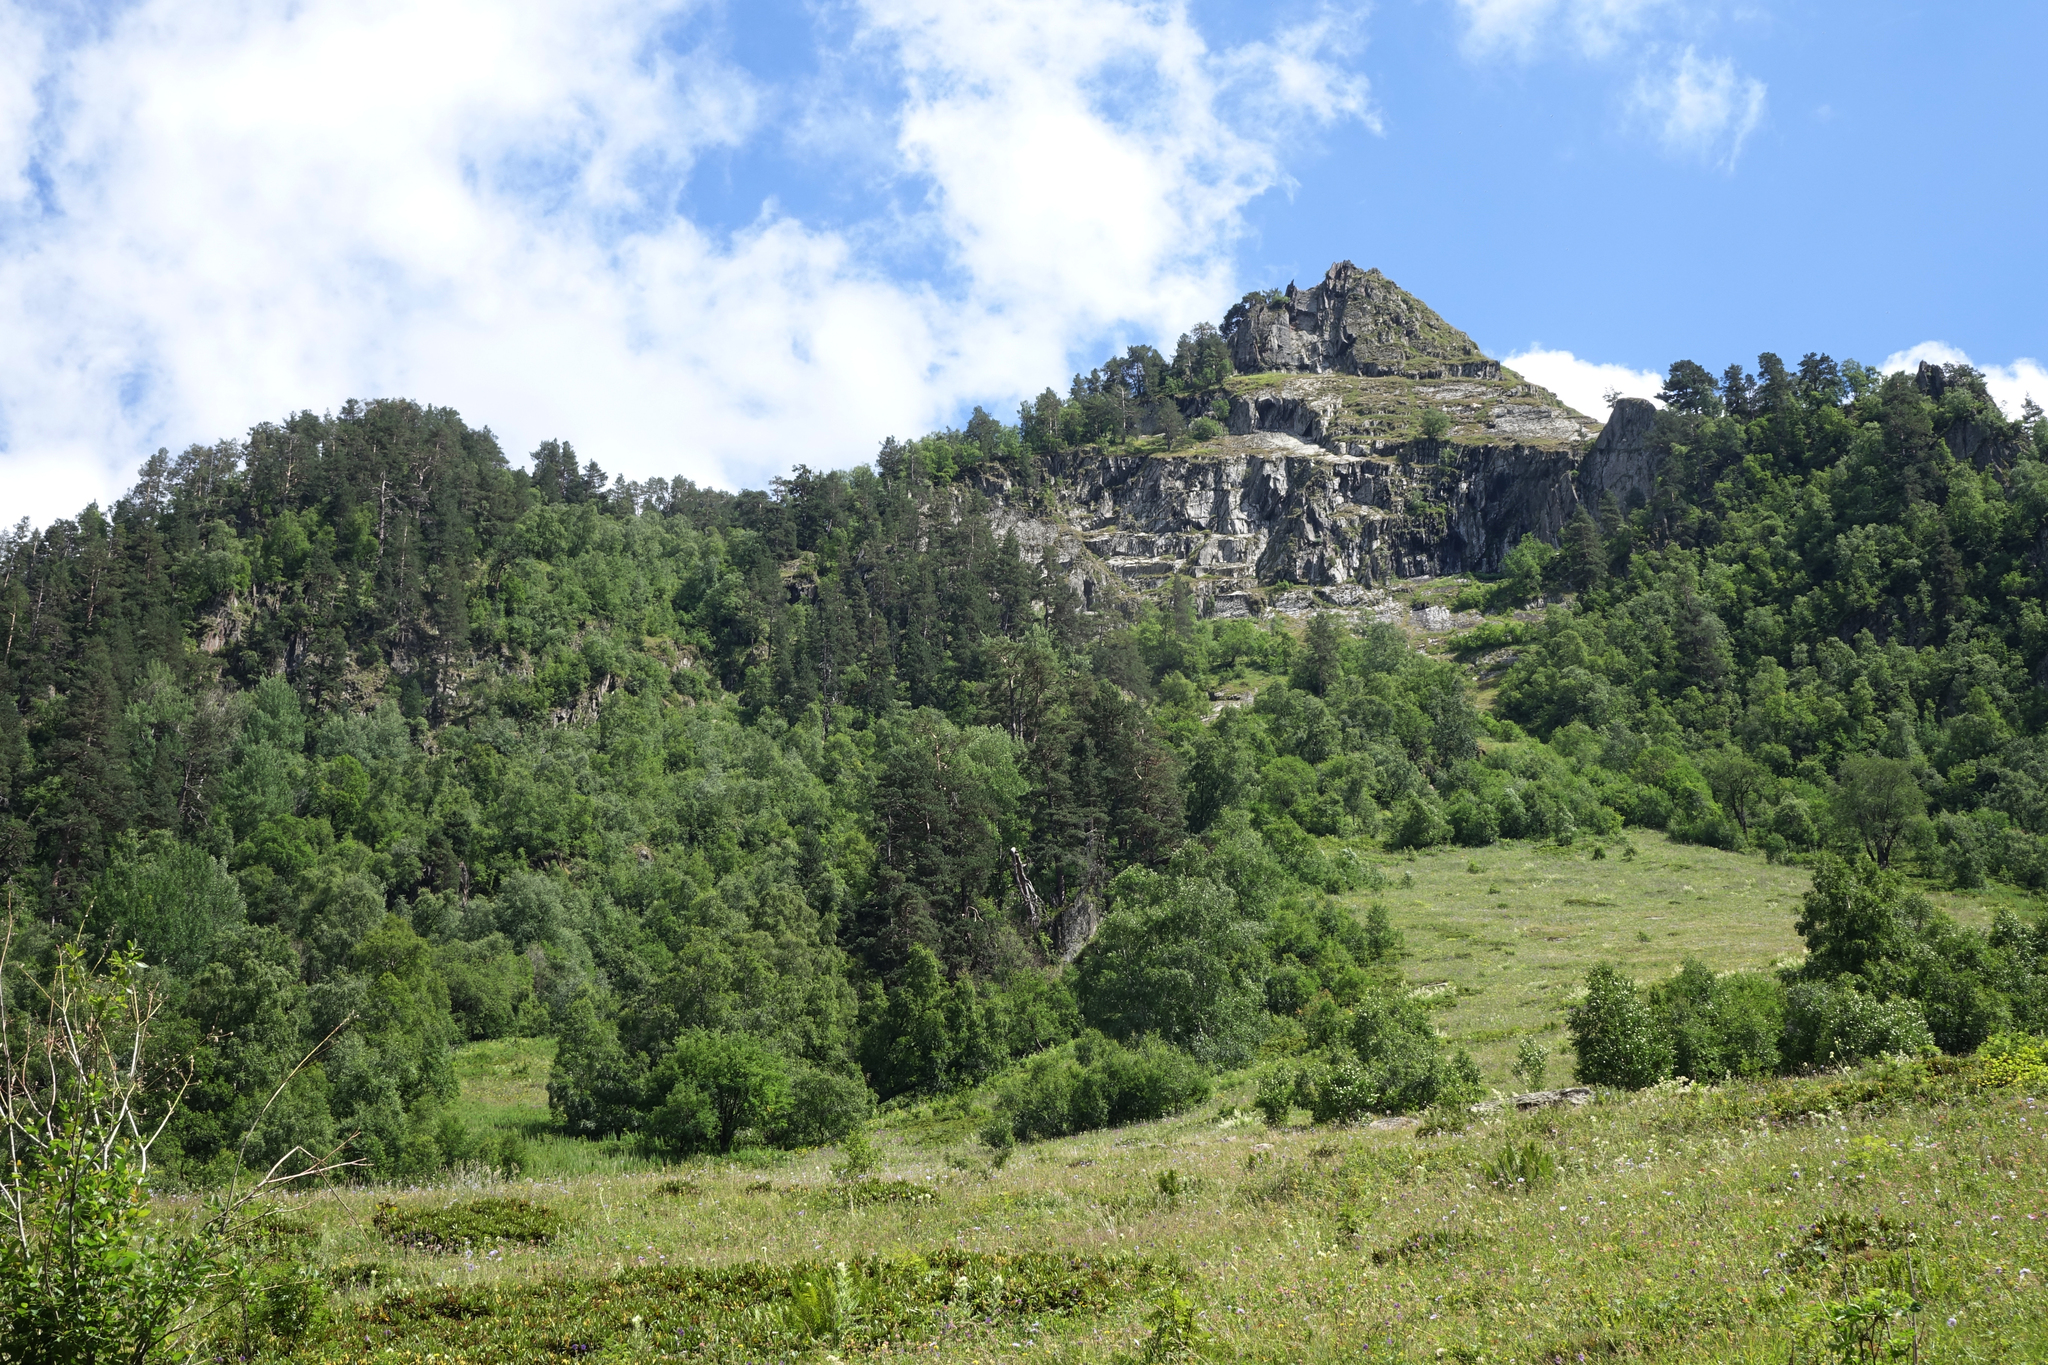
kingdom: Plantae
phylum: Tracheophyta
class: Pinopsida
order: Pinales
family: Pinaceae
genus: Pinus
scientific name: Pinus sylvestris
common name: Scots pine
